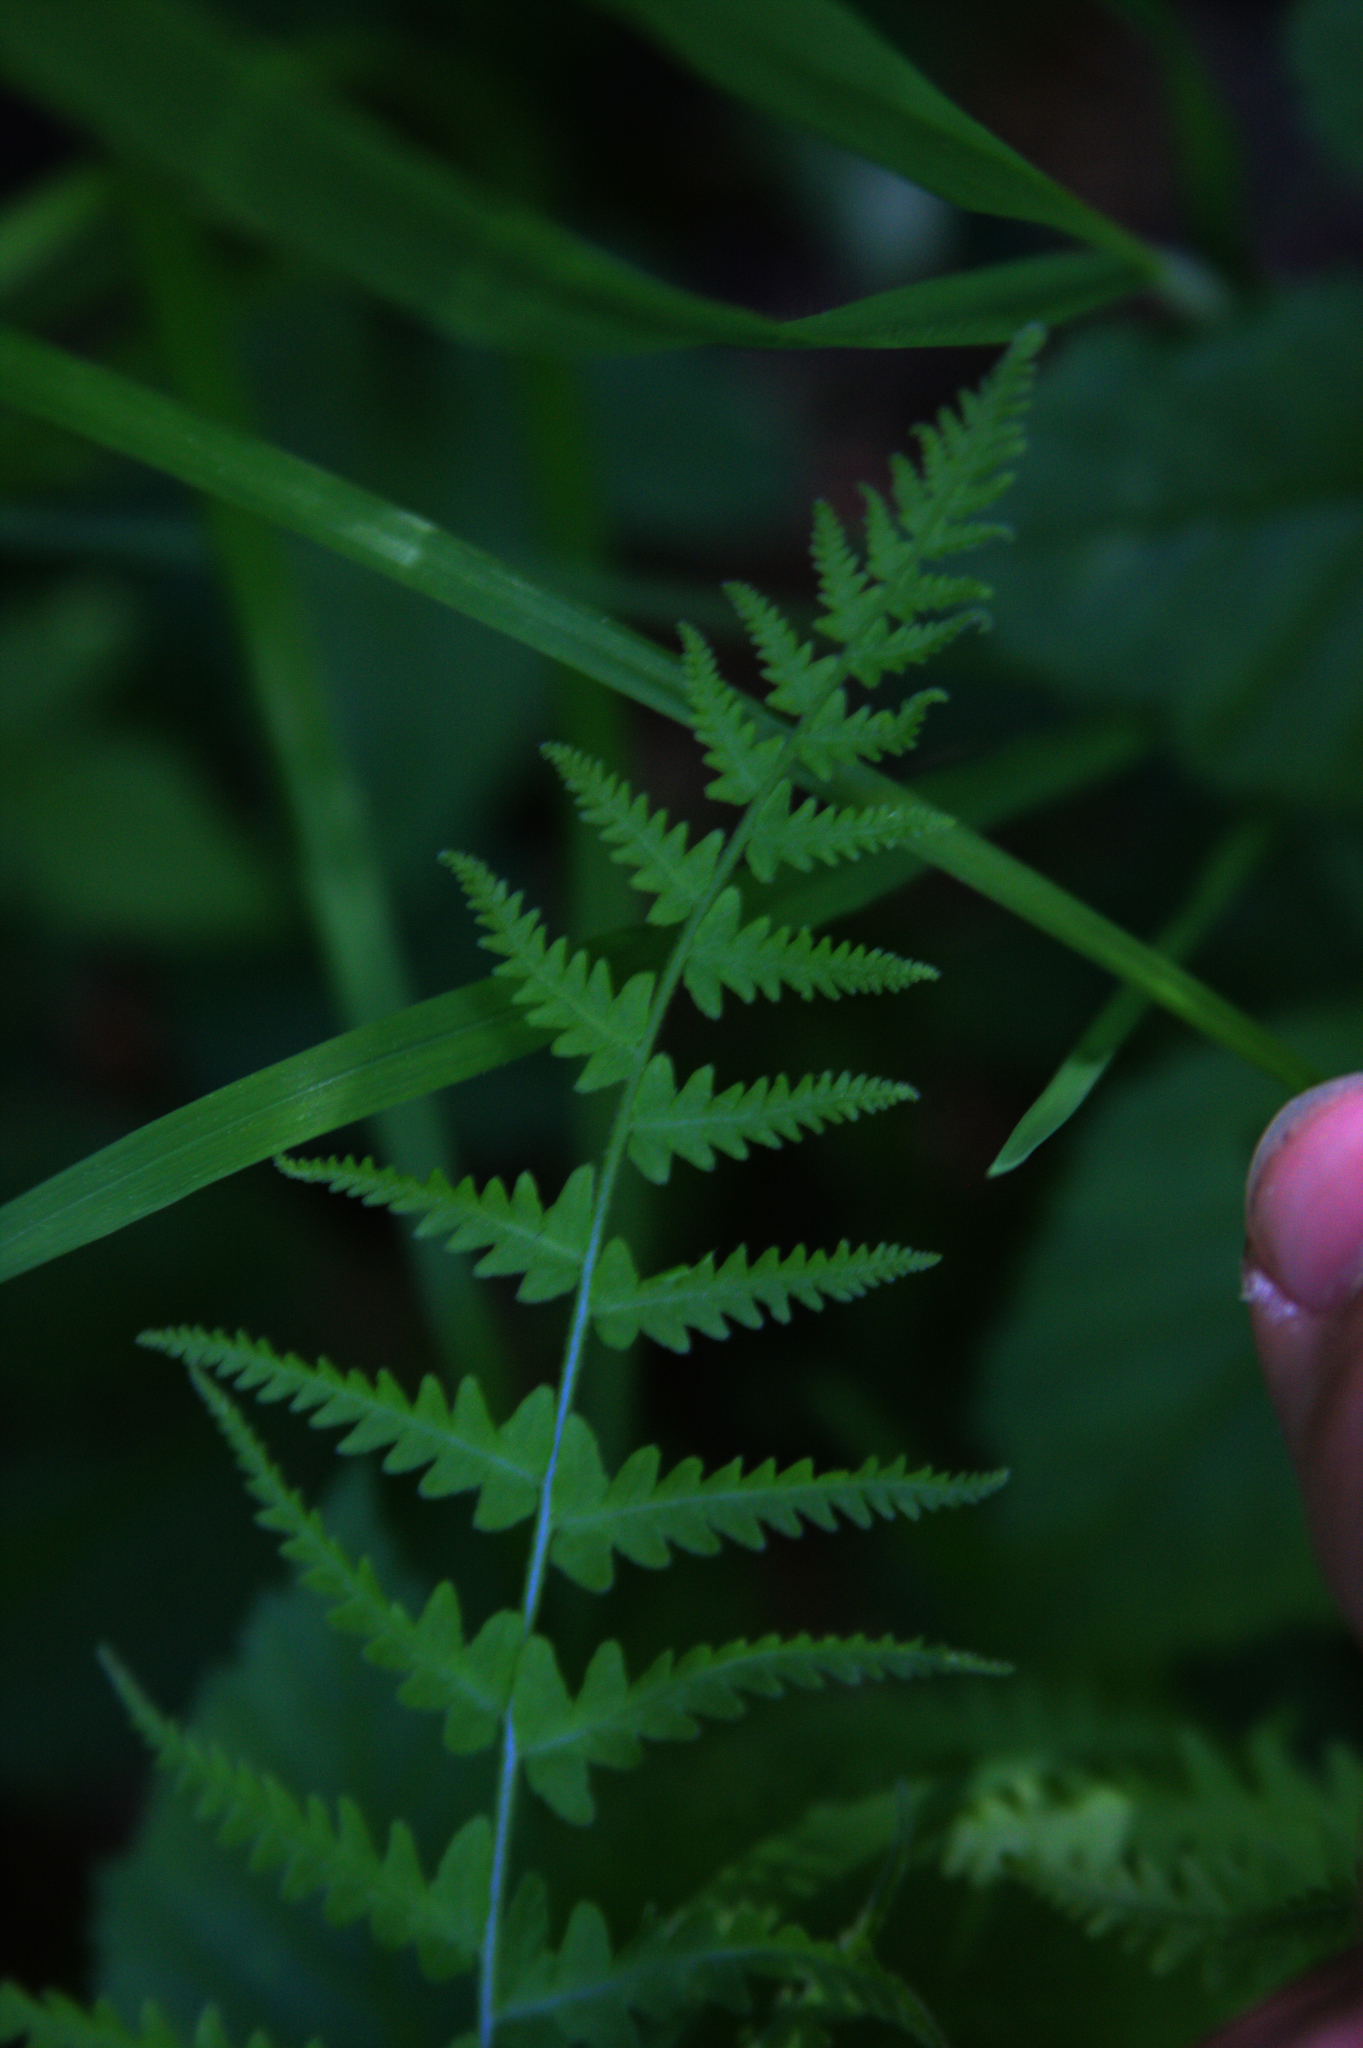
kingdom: Plantae
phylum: Tracheophyta
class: Polypodiopsida
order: Polypodiales
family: Thelypteridaceae
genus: Amauropelta
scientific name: Amauropelta noveboracensis
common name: New york fern
